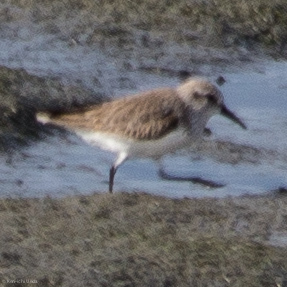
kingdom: Animalia
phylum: Chordata
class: Aves
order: Charadriiformes
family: Scolopacidae
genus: Calidris
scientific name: Calidris mauri
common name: Western sandpiper
